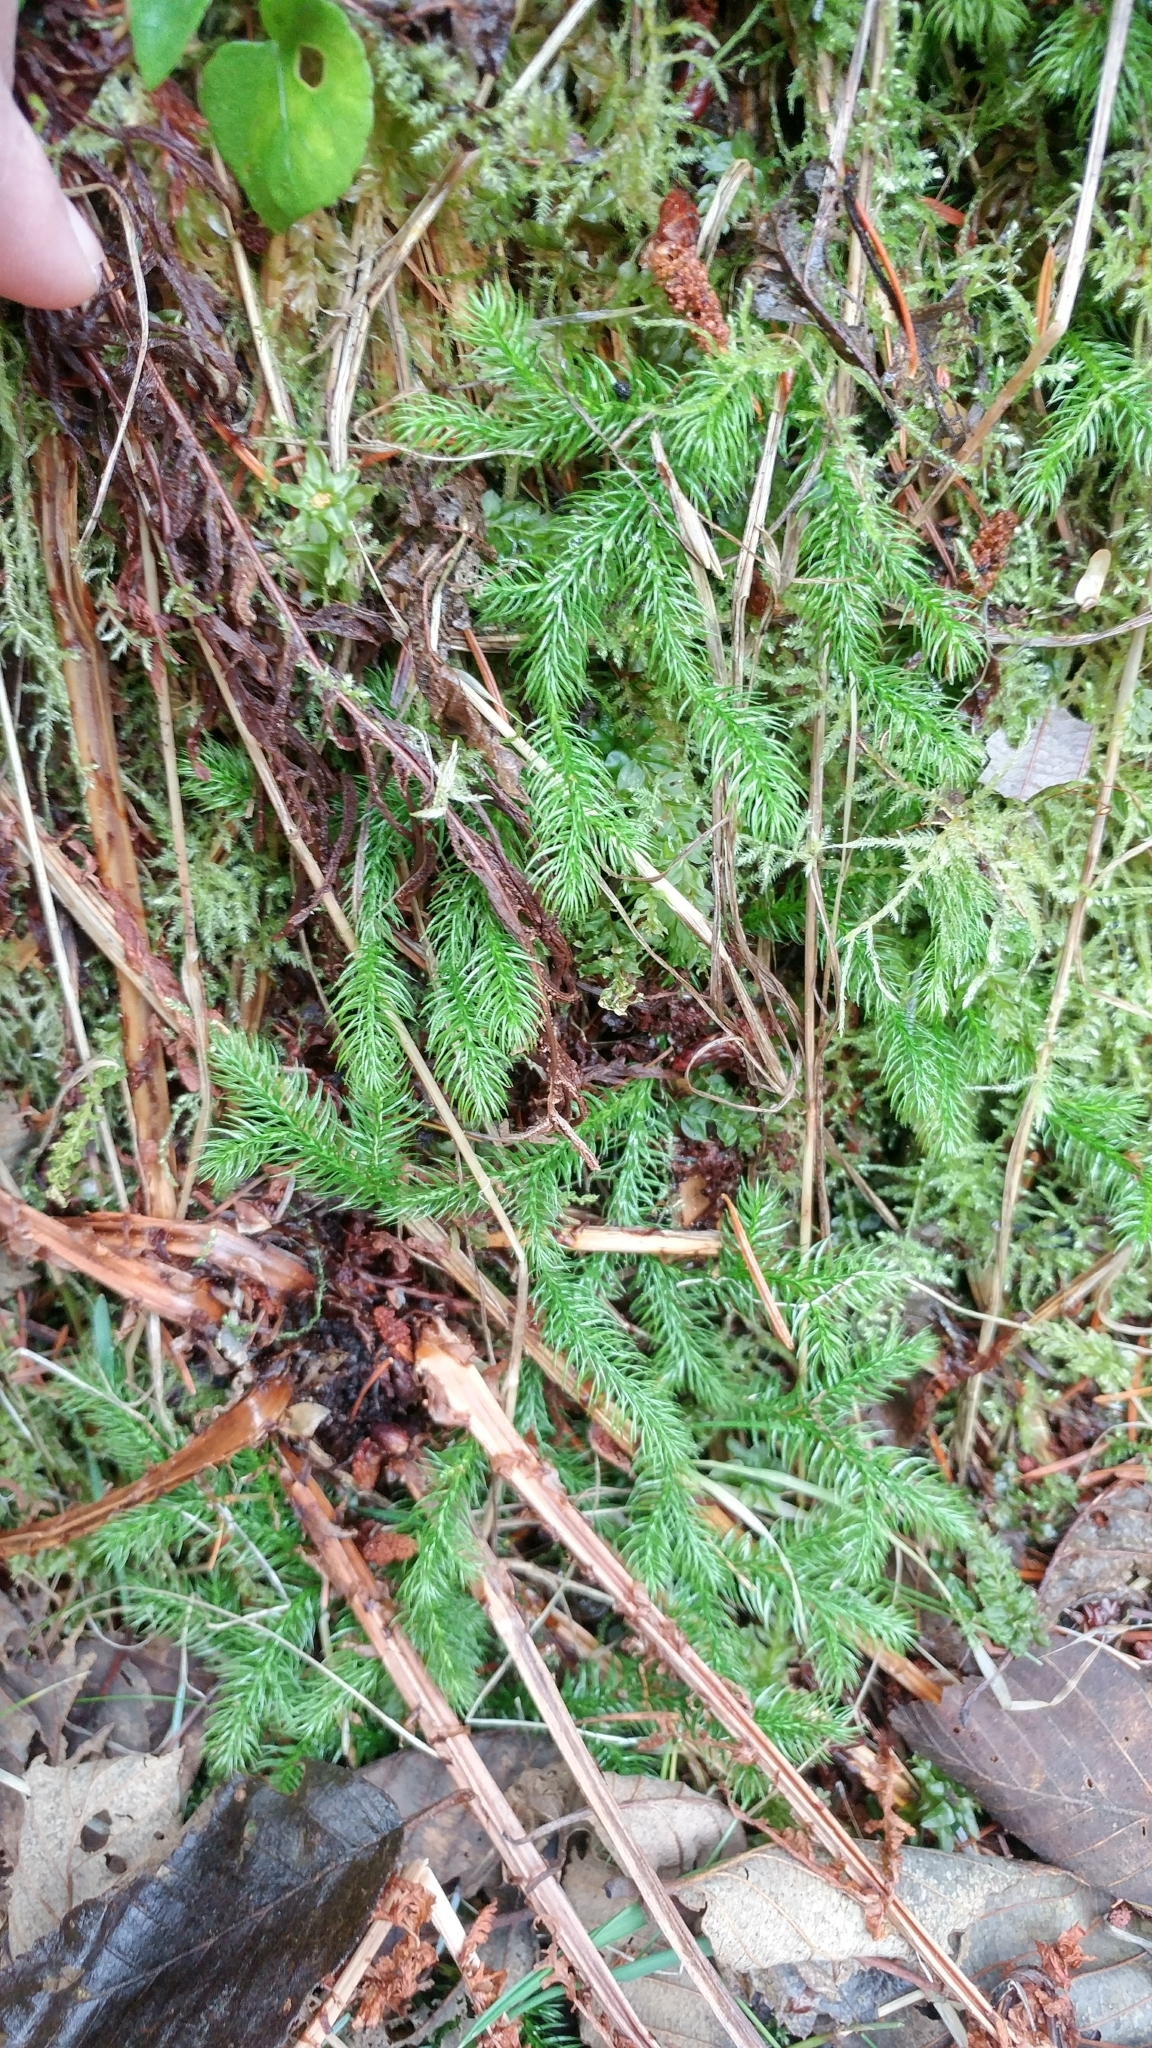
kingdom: Plantae
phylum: Tracheophyta
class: Lycopodiopsida
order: Lycopodiales
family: Lycopodiaceae
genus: Lycopodium
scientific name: Lycopodium clavatum
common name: Stag's-horn clubmoss
